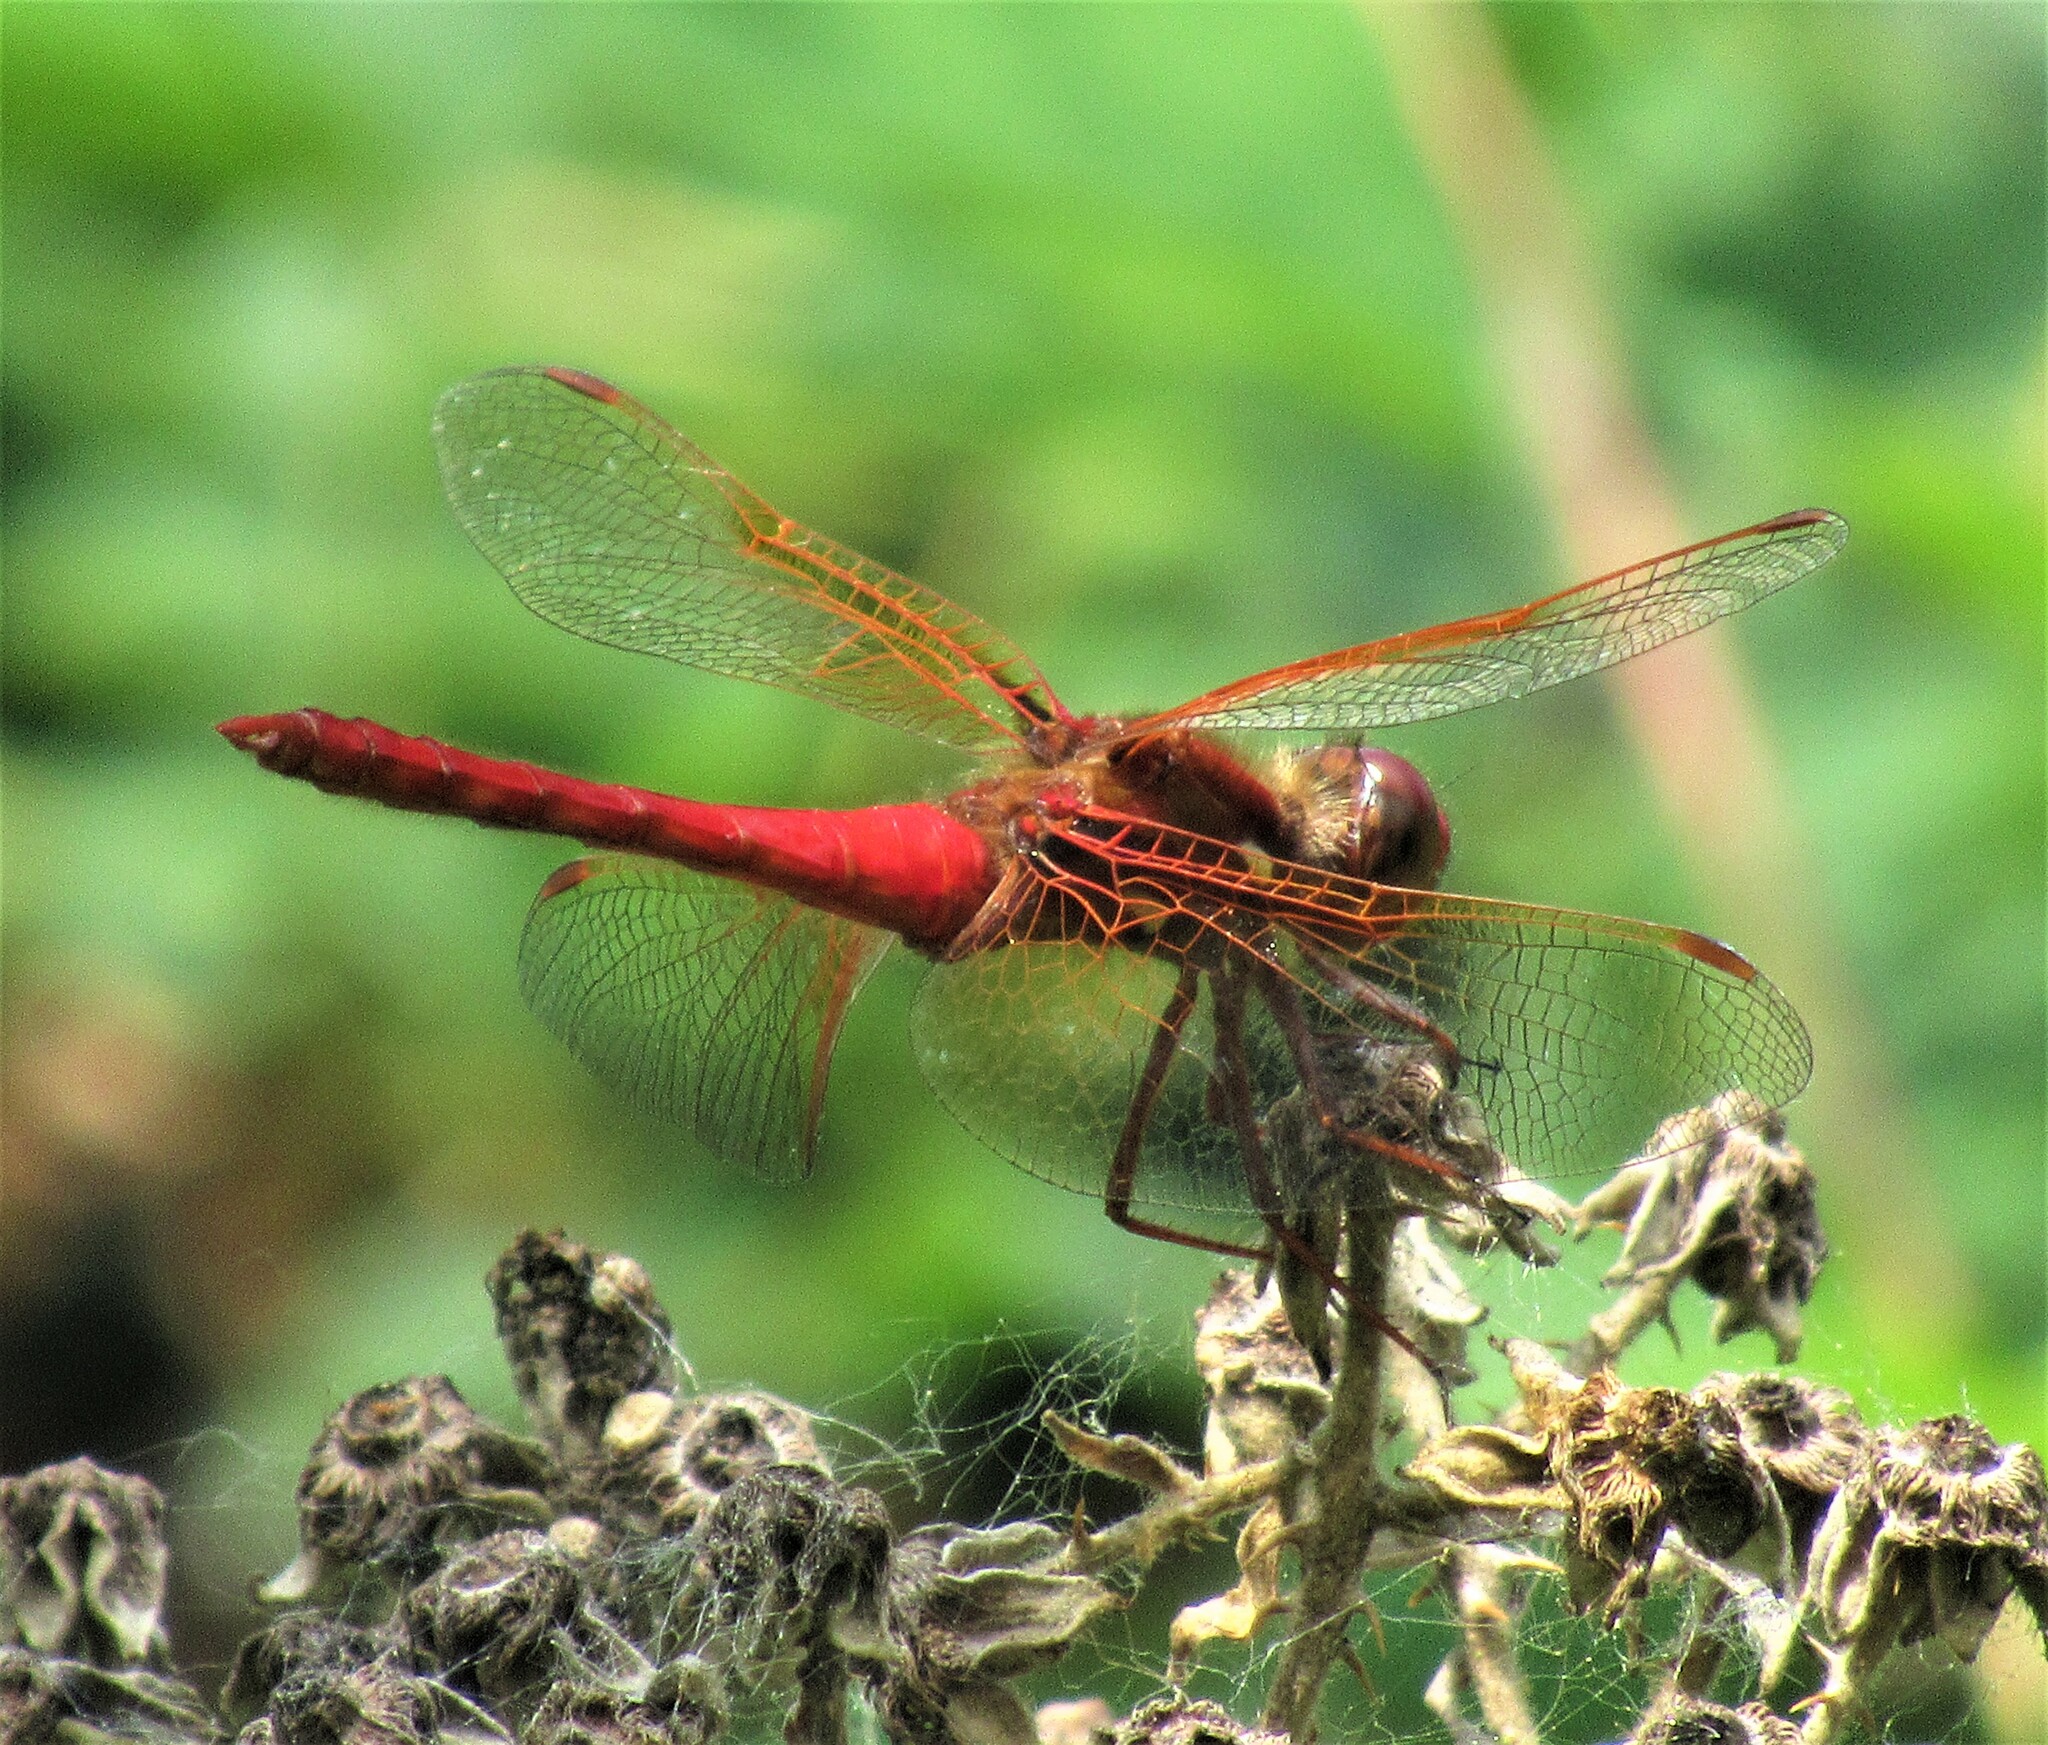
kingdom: Animalia
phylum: Arthropoda
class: Insecta
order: Odonata
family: Libellulidae
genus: Sympetrum
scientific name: Sympetrum illotum
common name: Cardinal meadowhawk
